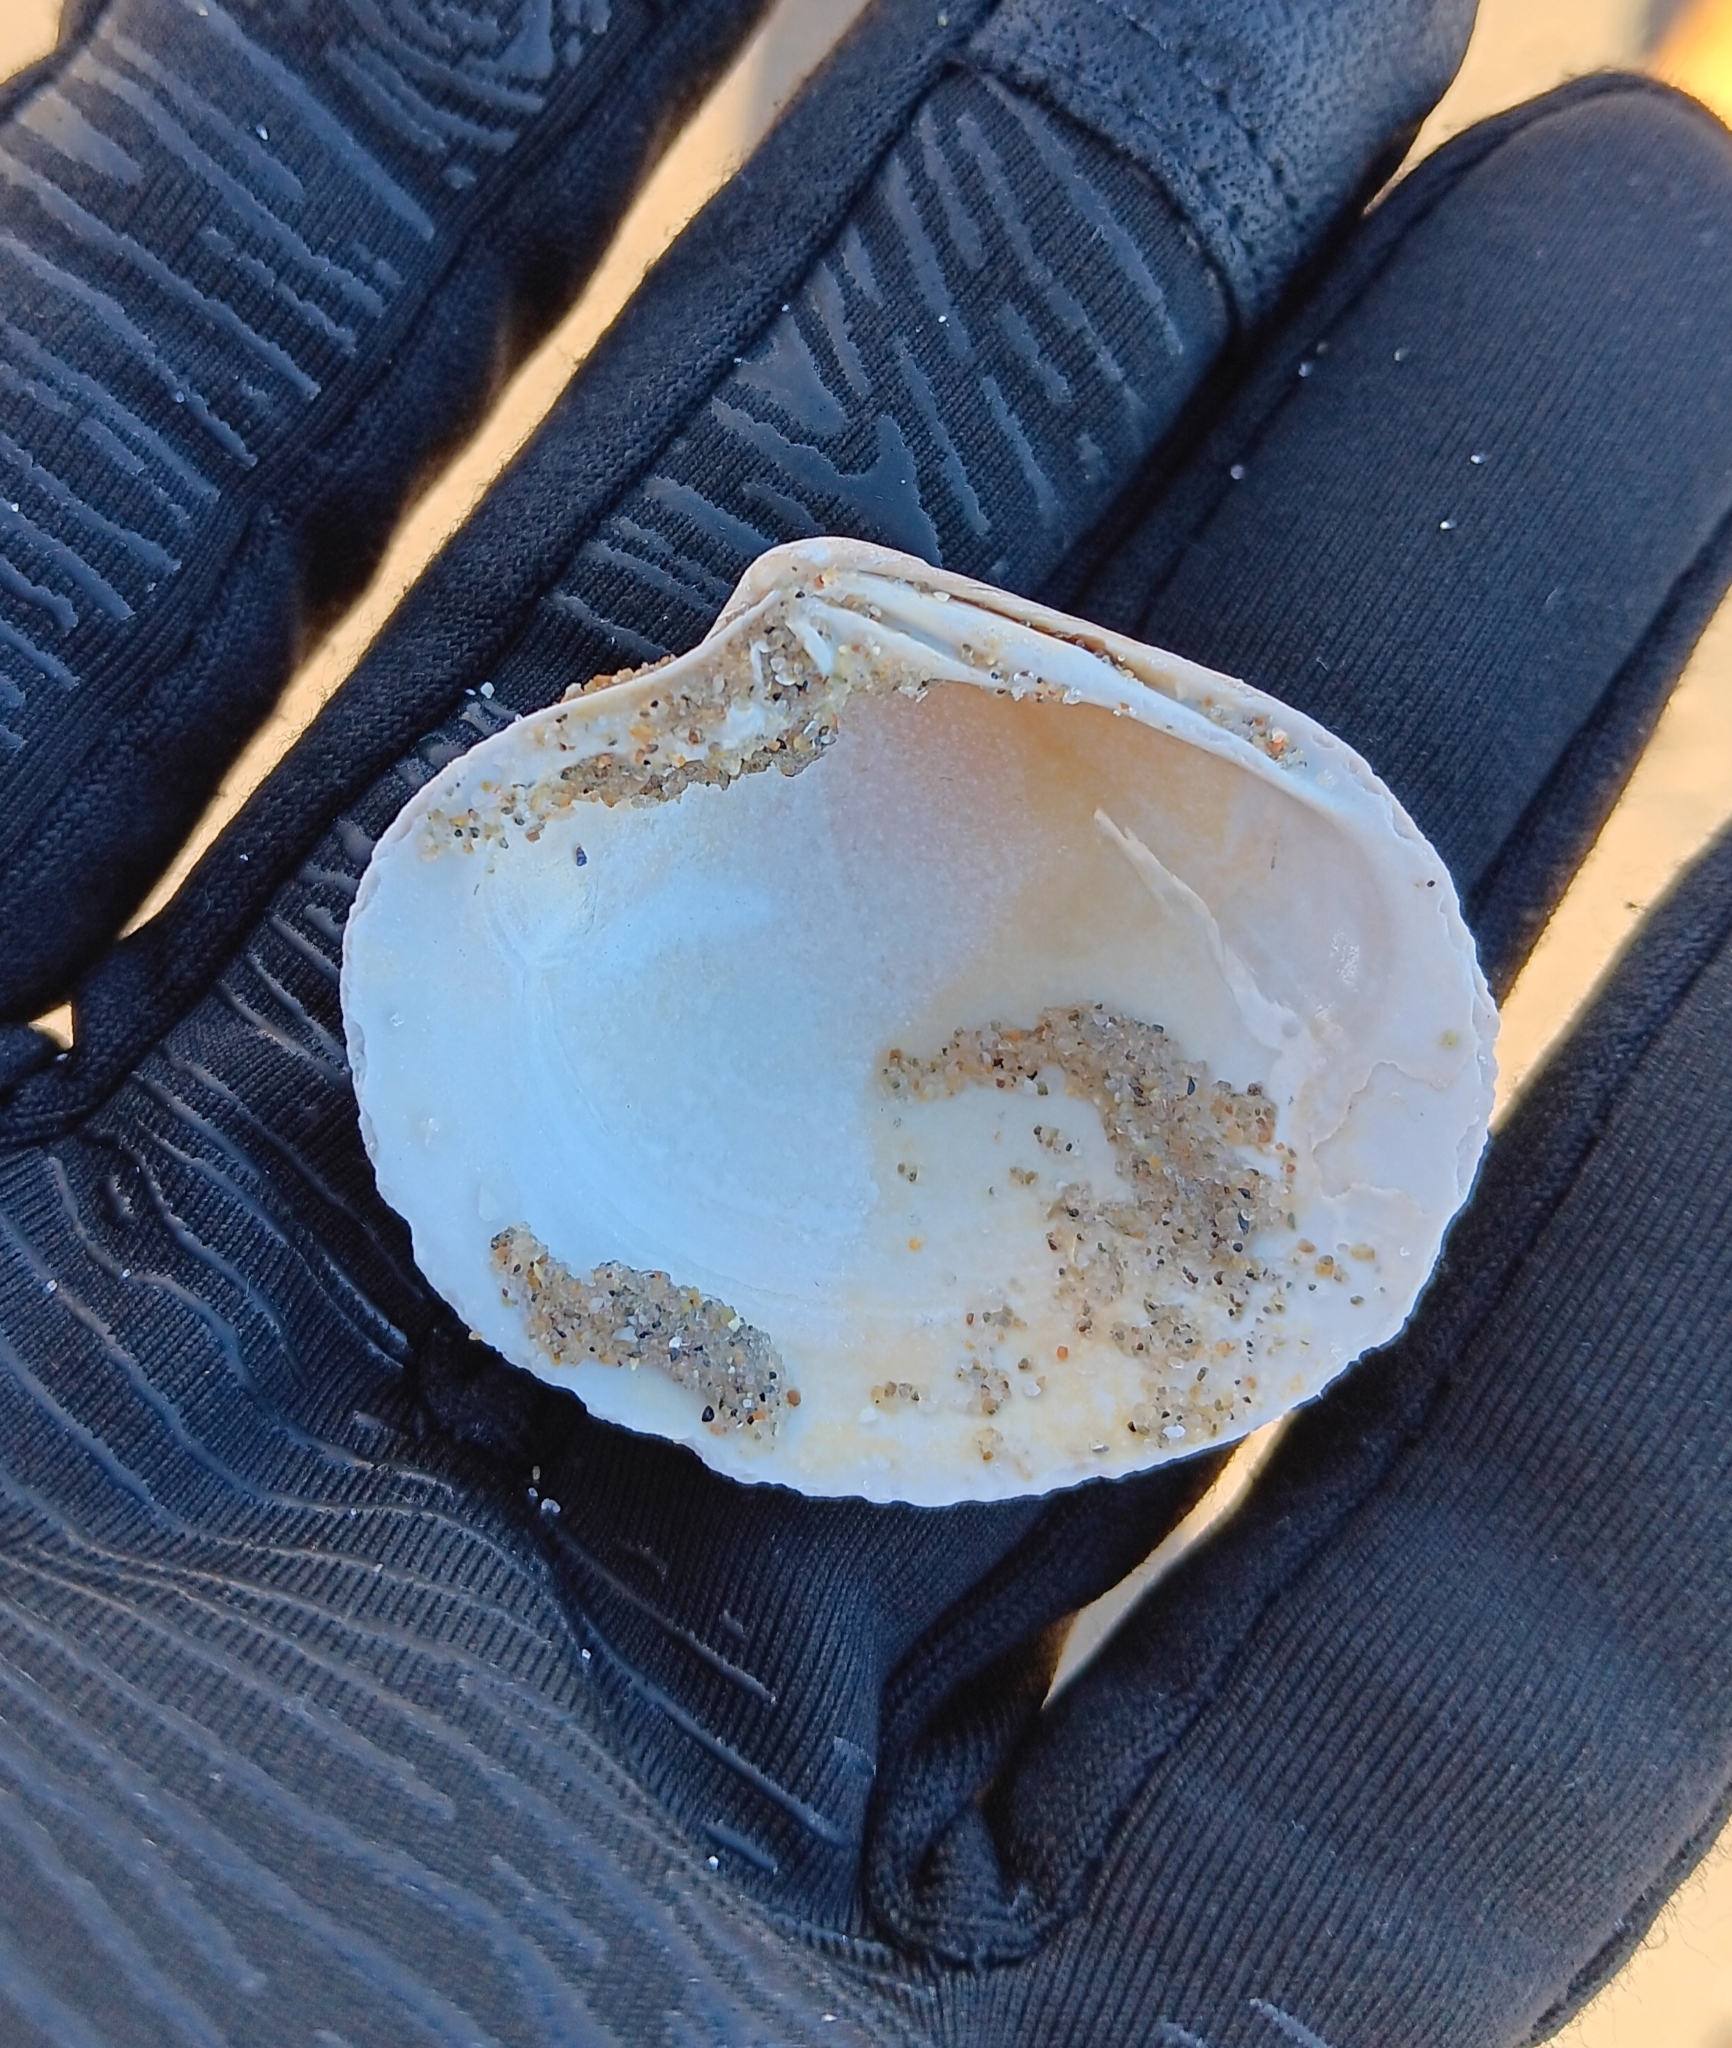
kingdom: Animalia
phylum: Mollusca
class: Bivalvia
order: Venerida
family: Veneridae
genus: Mercenaria
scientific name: Mercenaria mercenaria
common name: American hard-shelled clam
